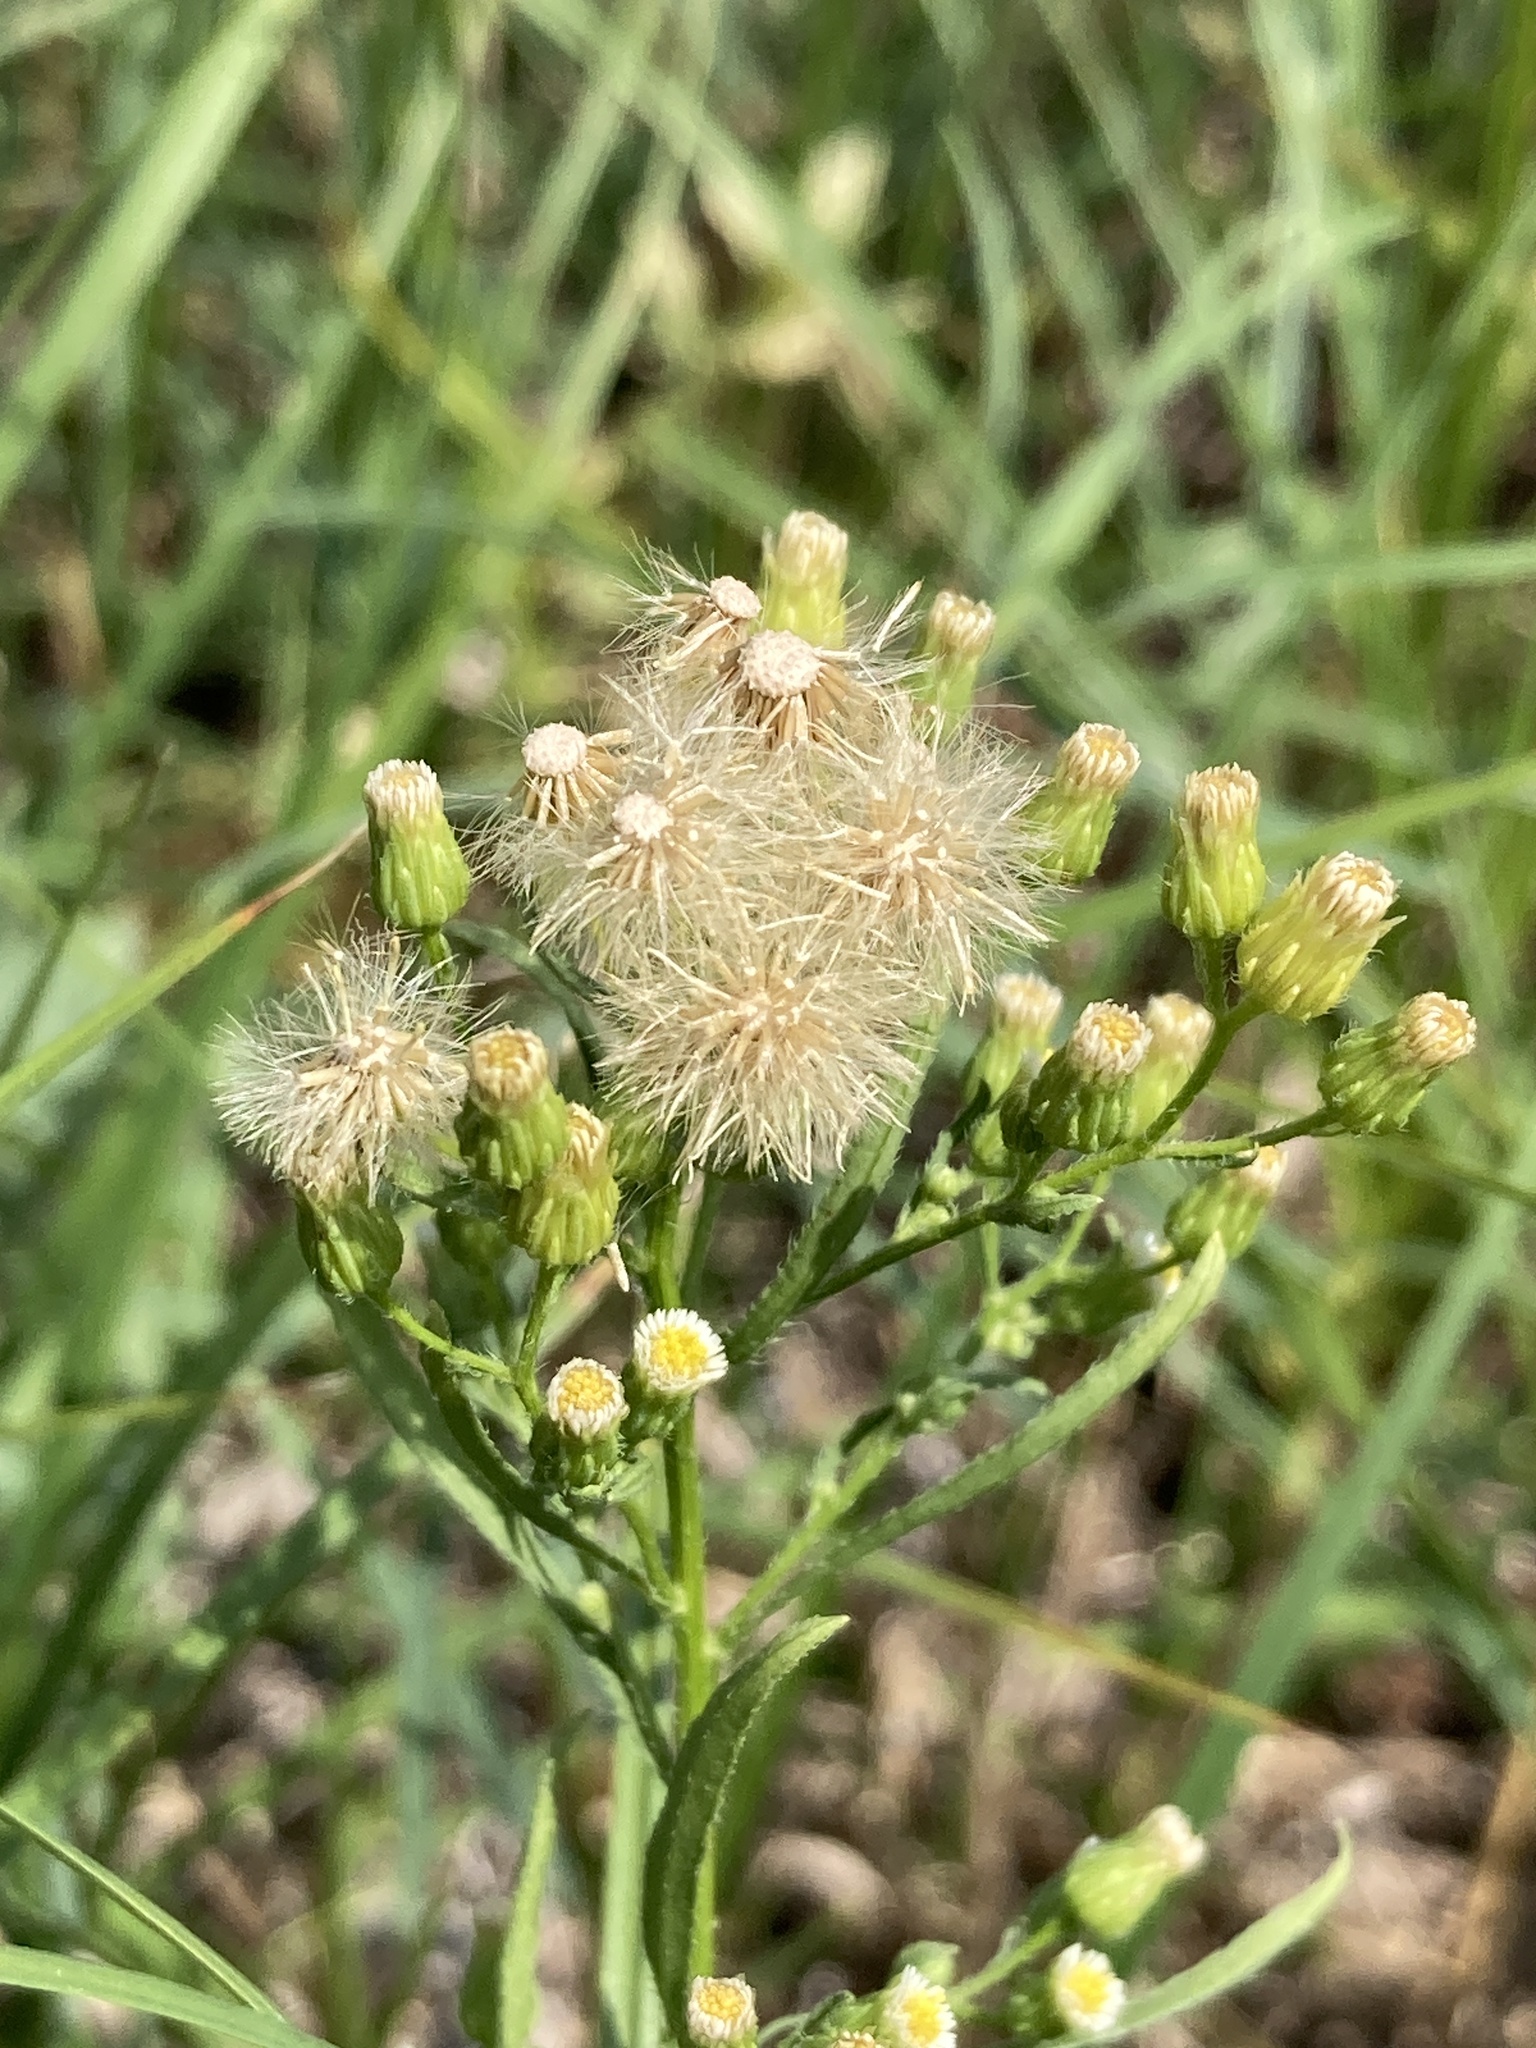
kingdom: Plantae
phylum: Tracheophyta
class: Magnoliopsida
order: Asterales
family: Asteraceae
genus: Erigeron
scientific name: Erigeron canadensis
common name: Canadian fleabane
